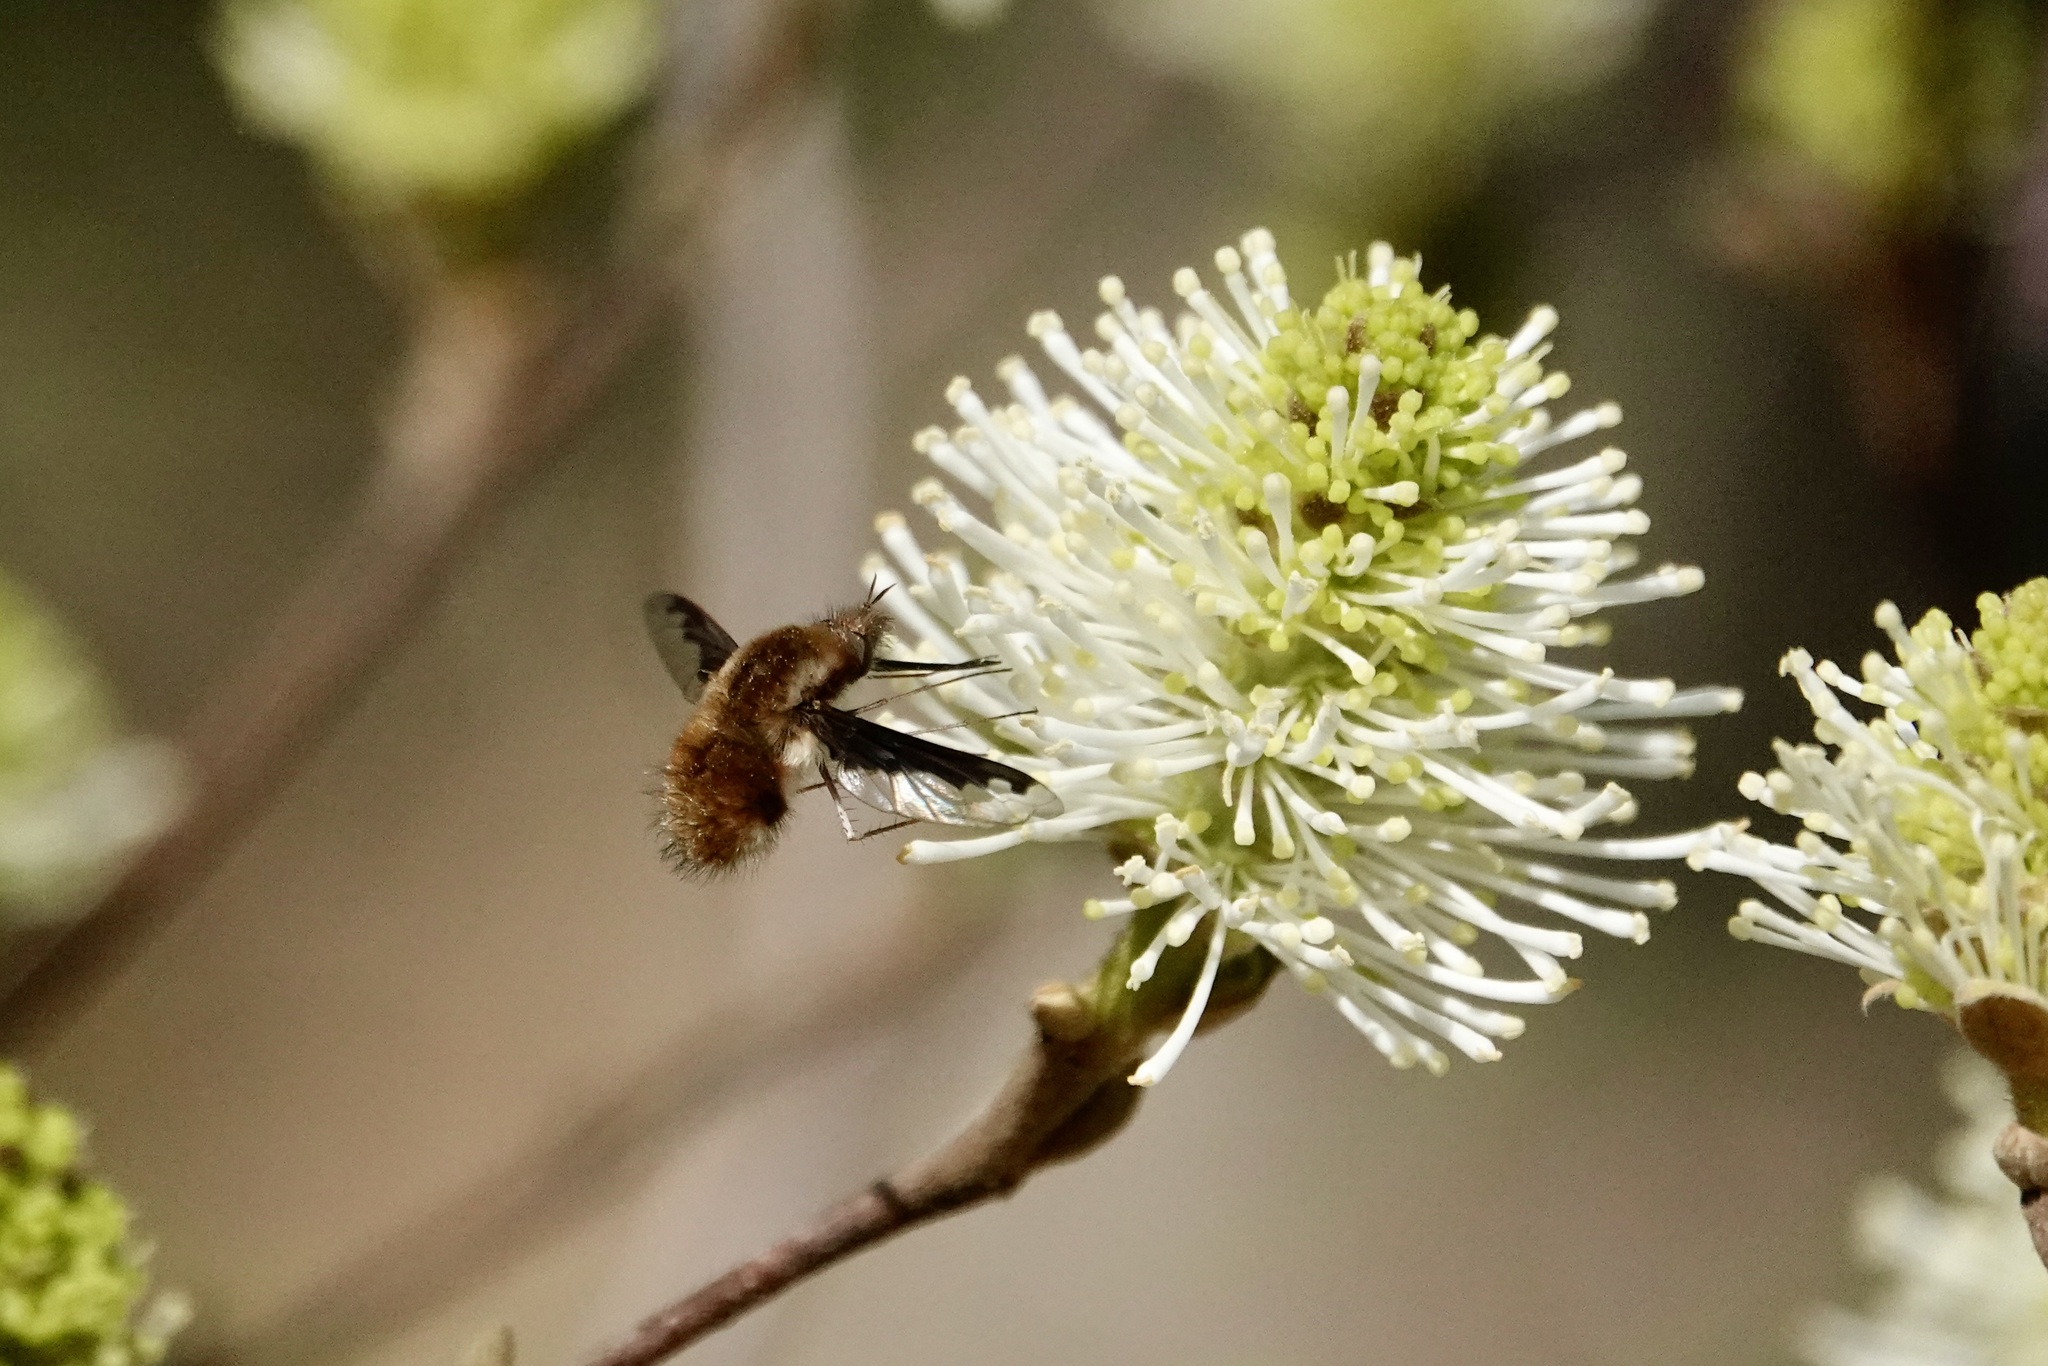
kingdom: Animalia
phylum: Arthropoda
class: Insecta
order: Diptera
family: Bombyliidae
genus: Bombylius
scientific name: Bombylius major
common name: Bee fly
